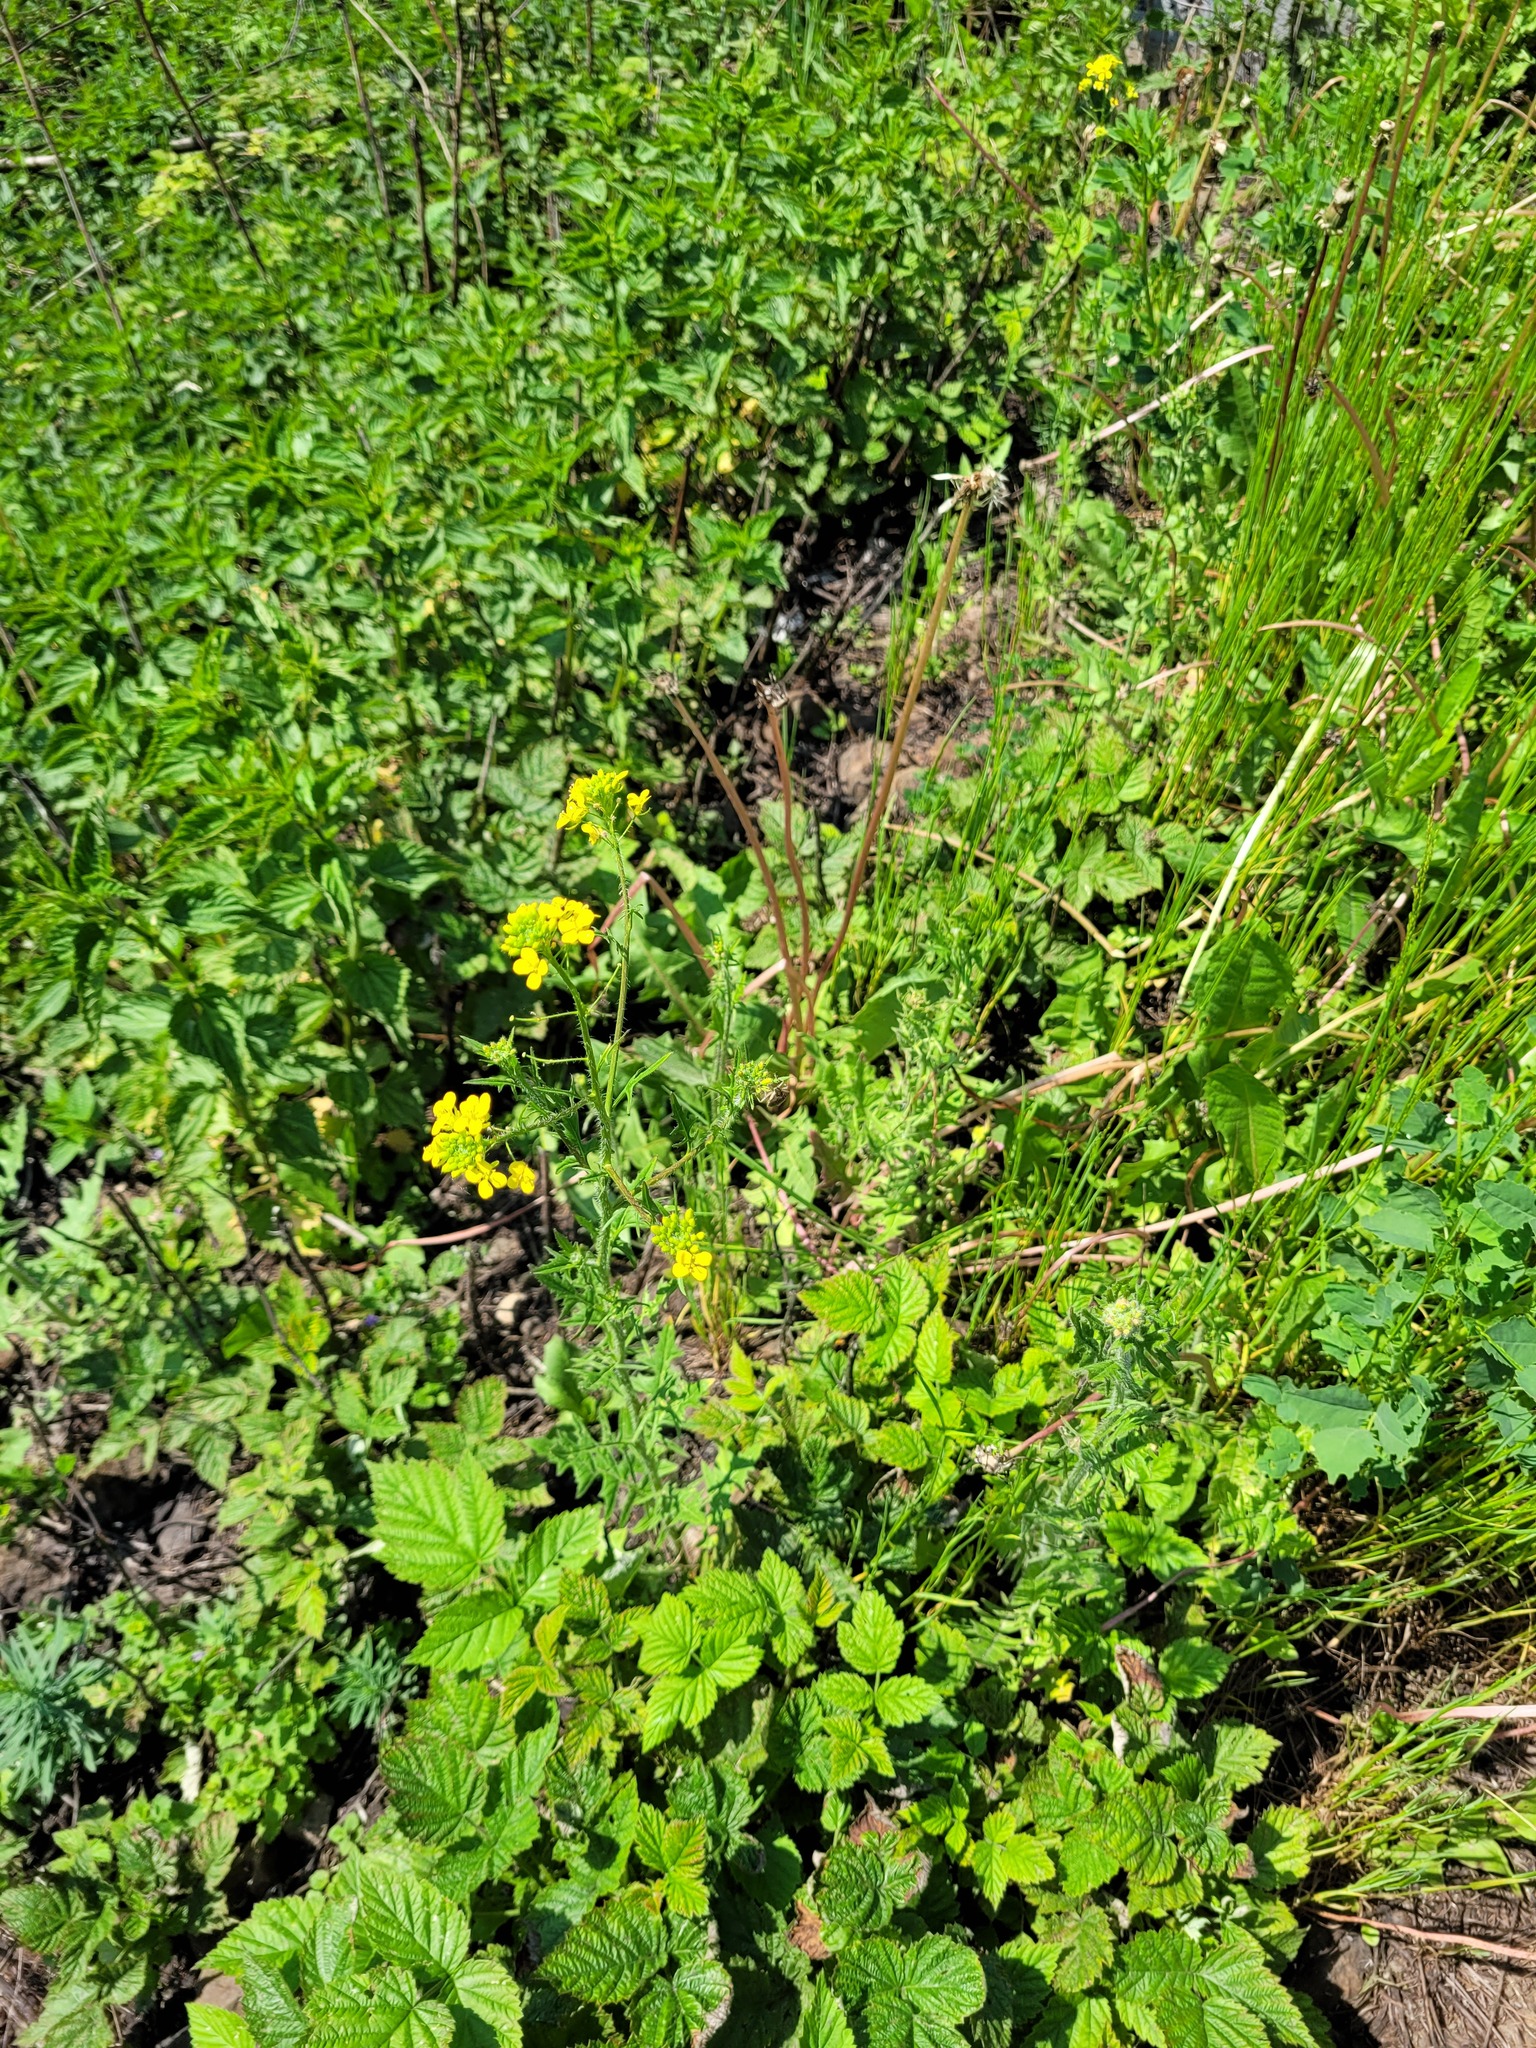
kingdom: Plantae
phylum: Tracheophyta
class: Magnoliopsida
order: Brassicales
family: Brassicaceae
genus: Sisymbrium
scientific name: Sisymbrium loeselii
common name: False london-rocket
